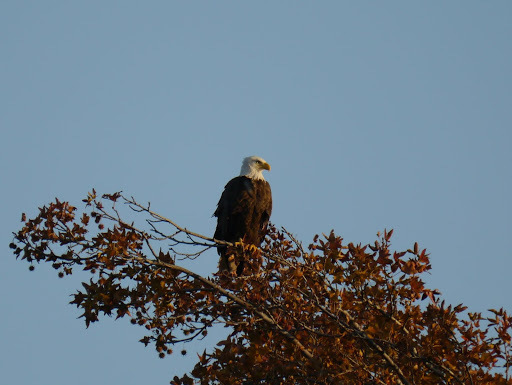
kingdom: Animalia
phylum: Chordata
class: Aves
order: Accipitriformes
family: Accipitridae
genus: Haliaeetus
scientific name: Haliaeetus leucocephalus
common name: Bald eagle
